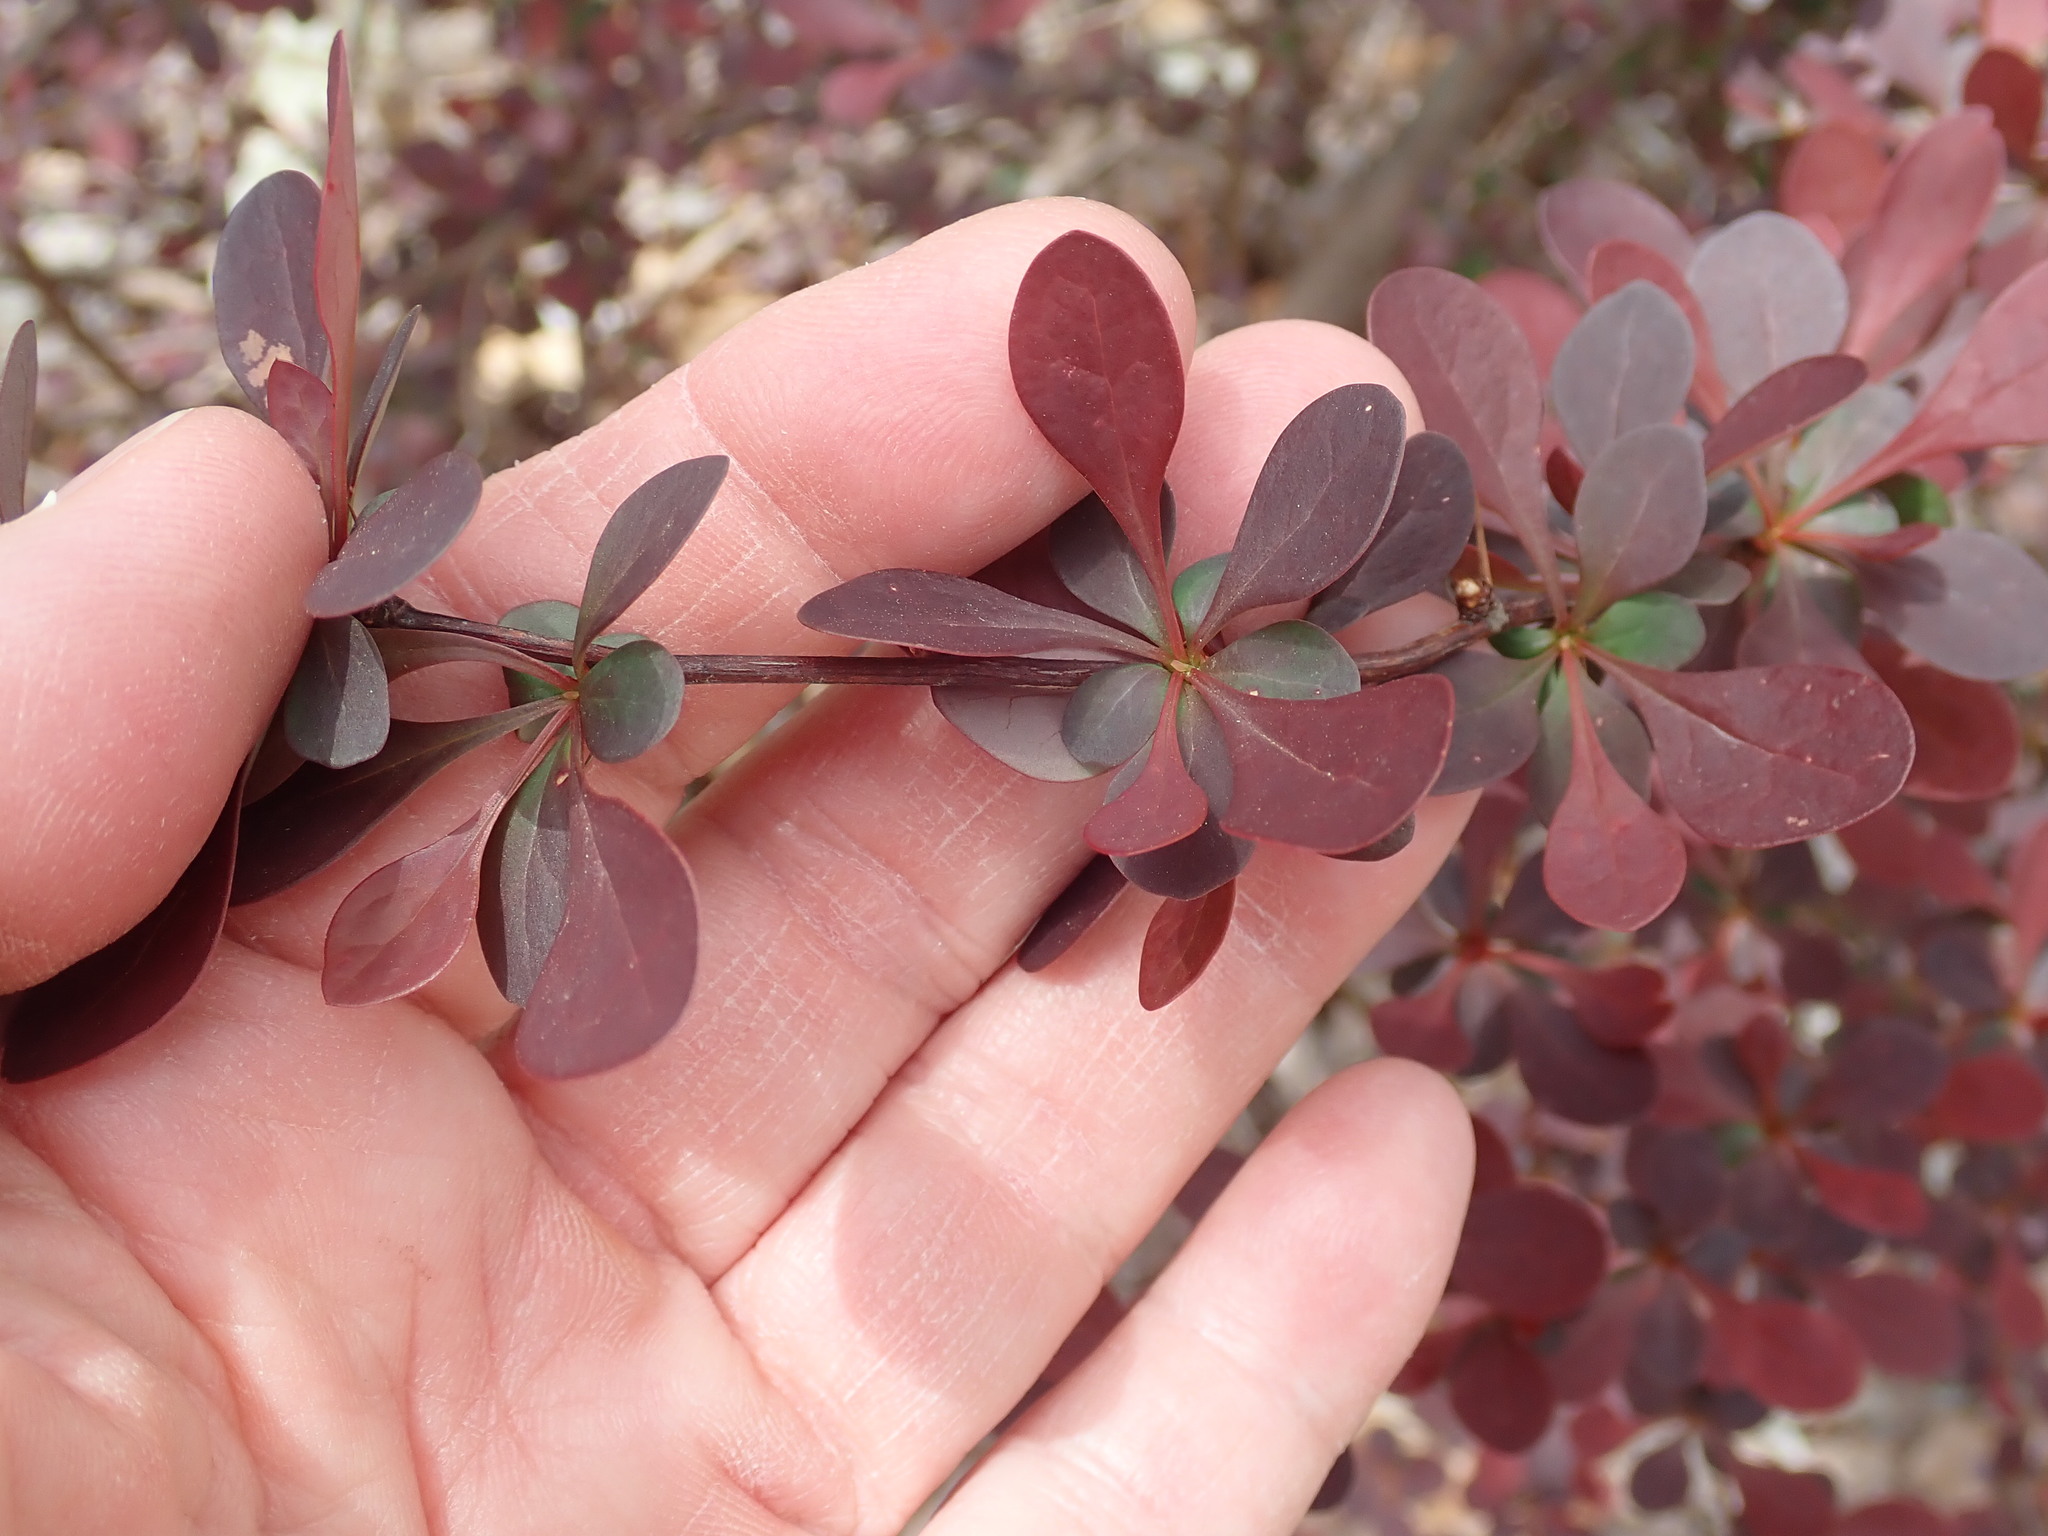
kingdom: Plantae
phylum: Tracheophyta
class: Magnoliopsida
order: Ranunculales
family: Berberidaceae
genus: Berberis
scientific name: Berberis thunbergii
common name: Japanese barberry
